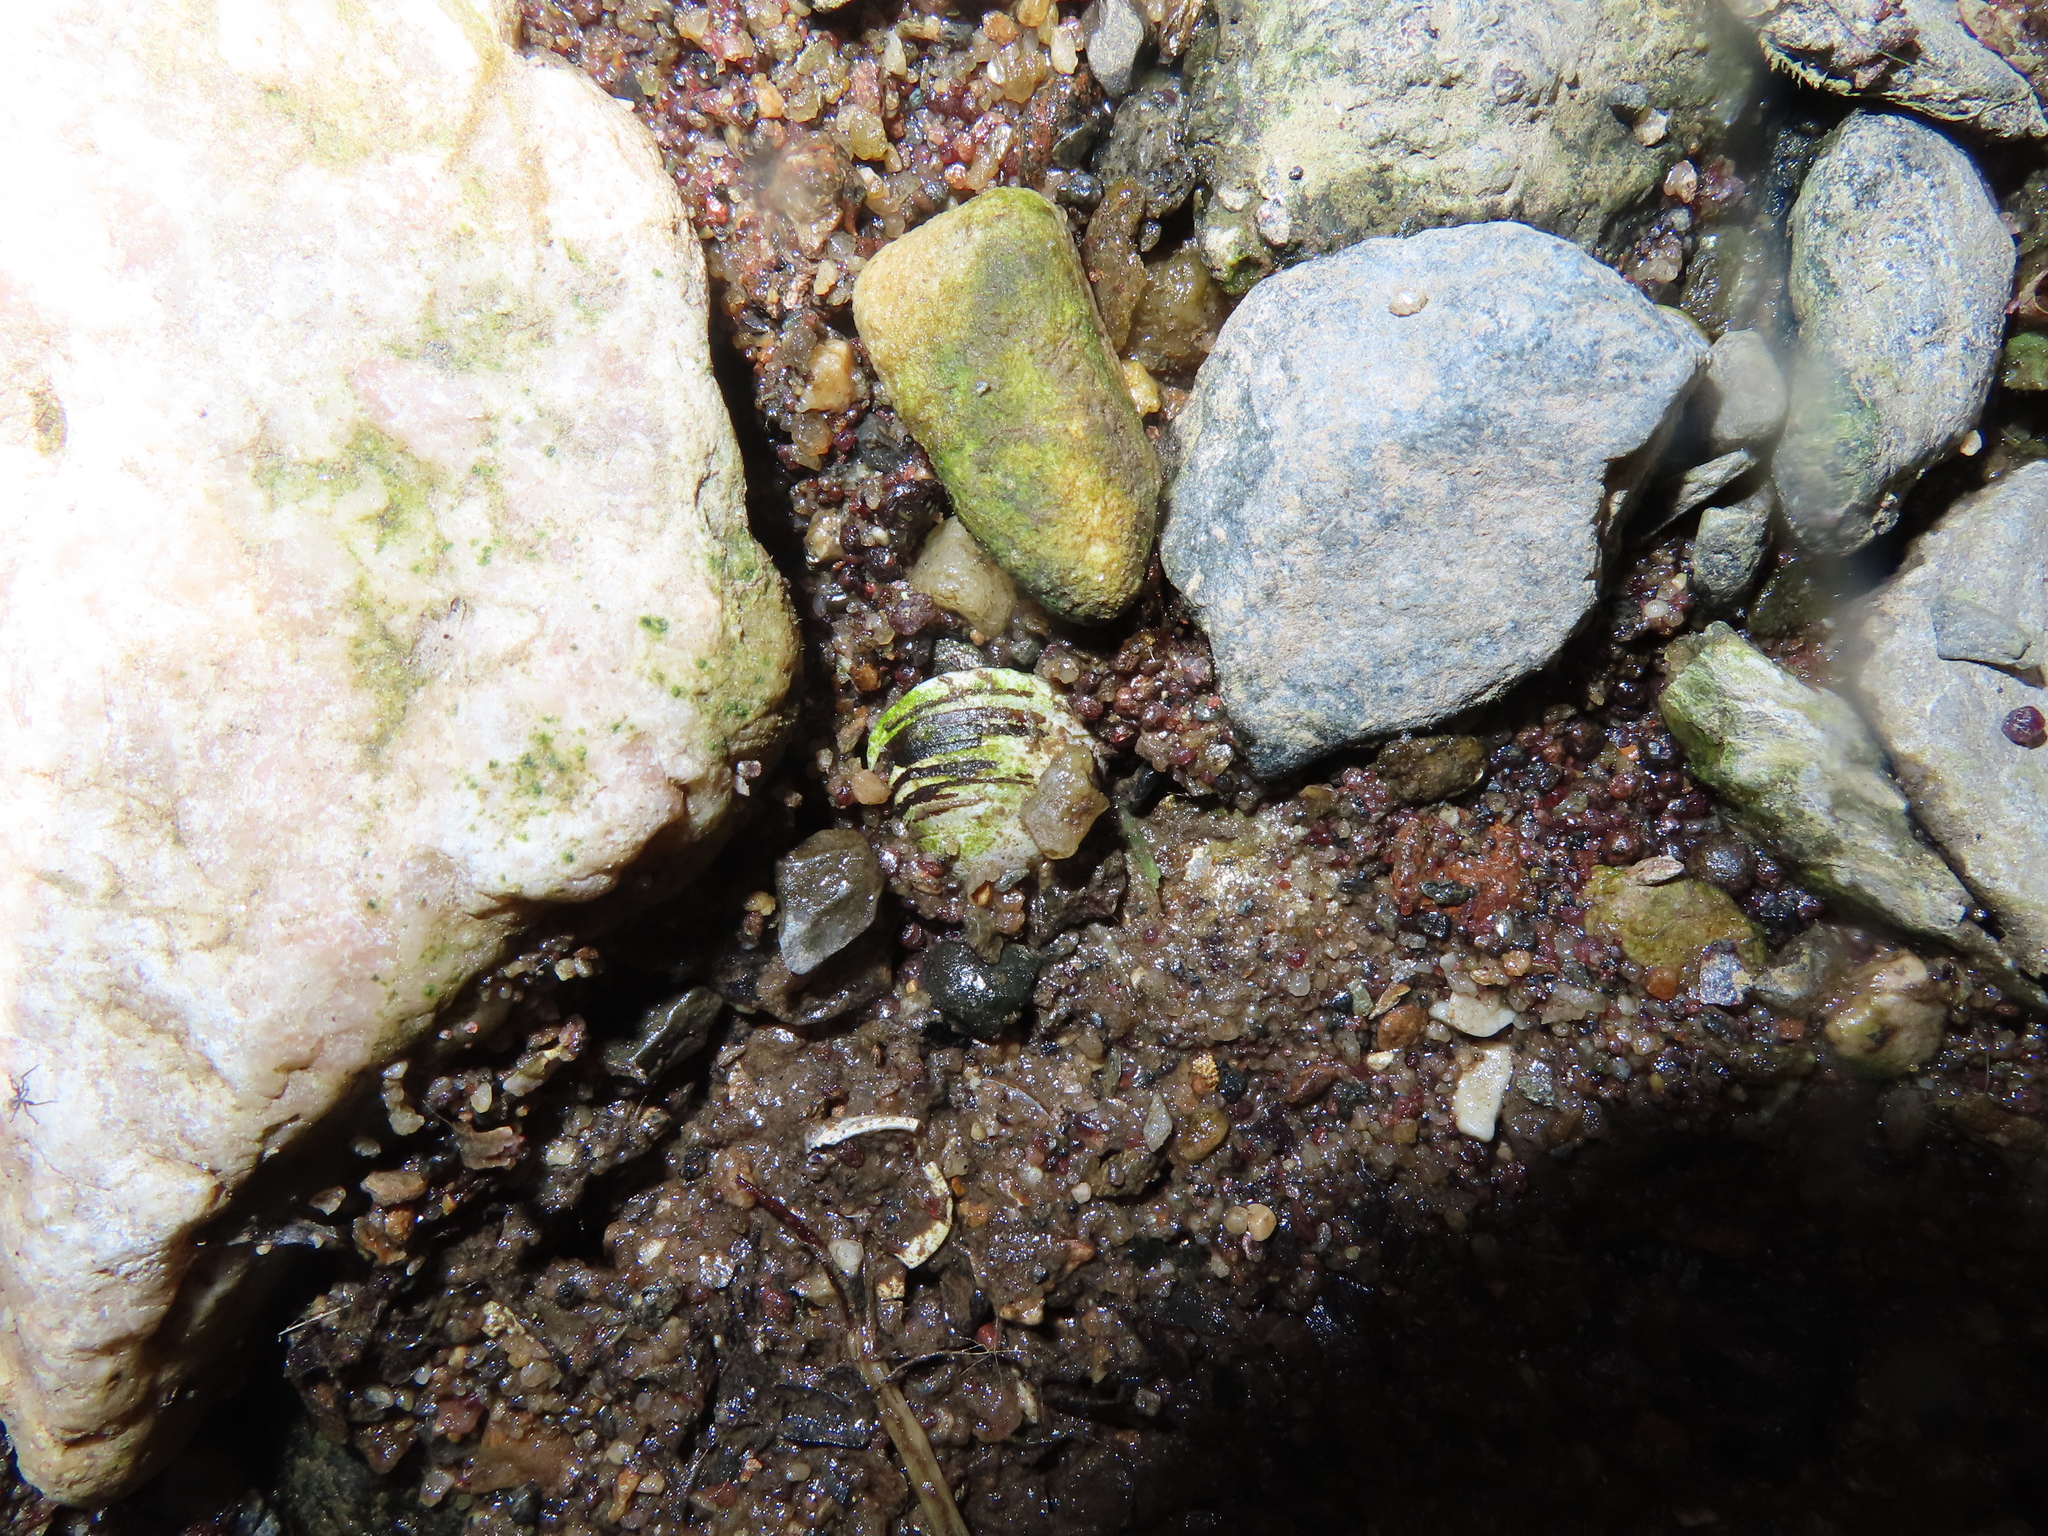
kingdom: Animalia
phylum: Mollusca
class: Bivalvia
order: Venerida
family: Cyrenidae
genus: Corbicula
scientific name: Corbicula fluminea
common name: Asian clam
